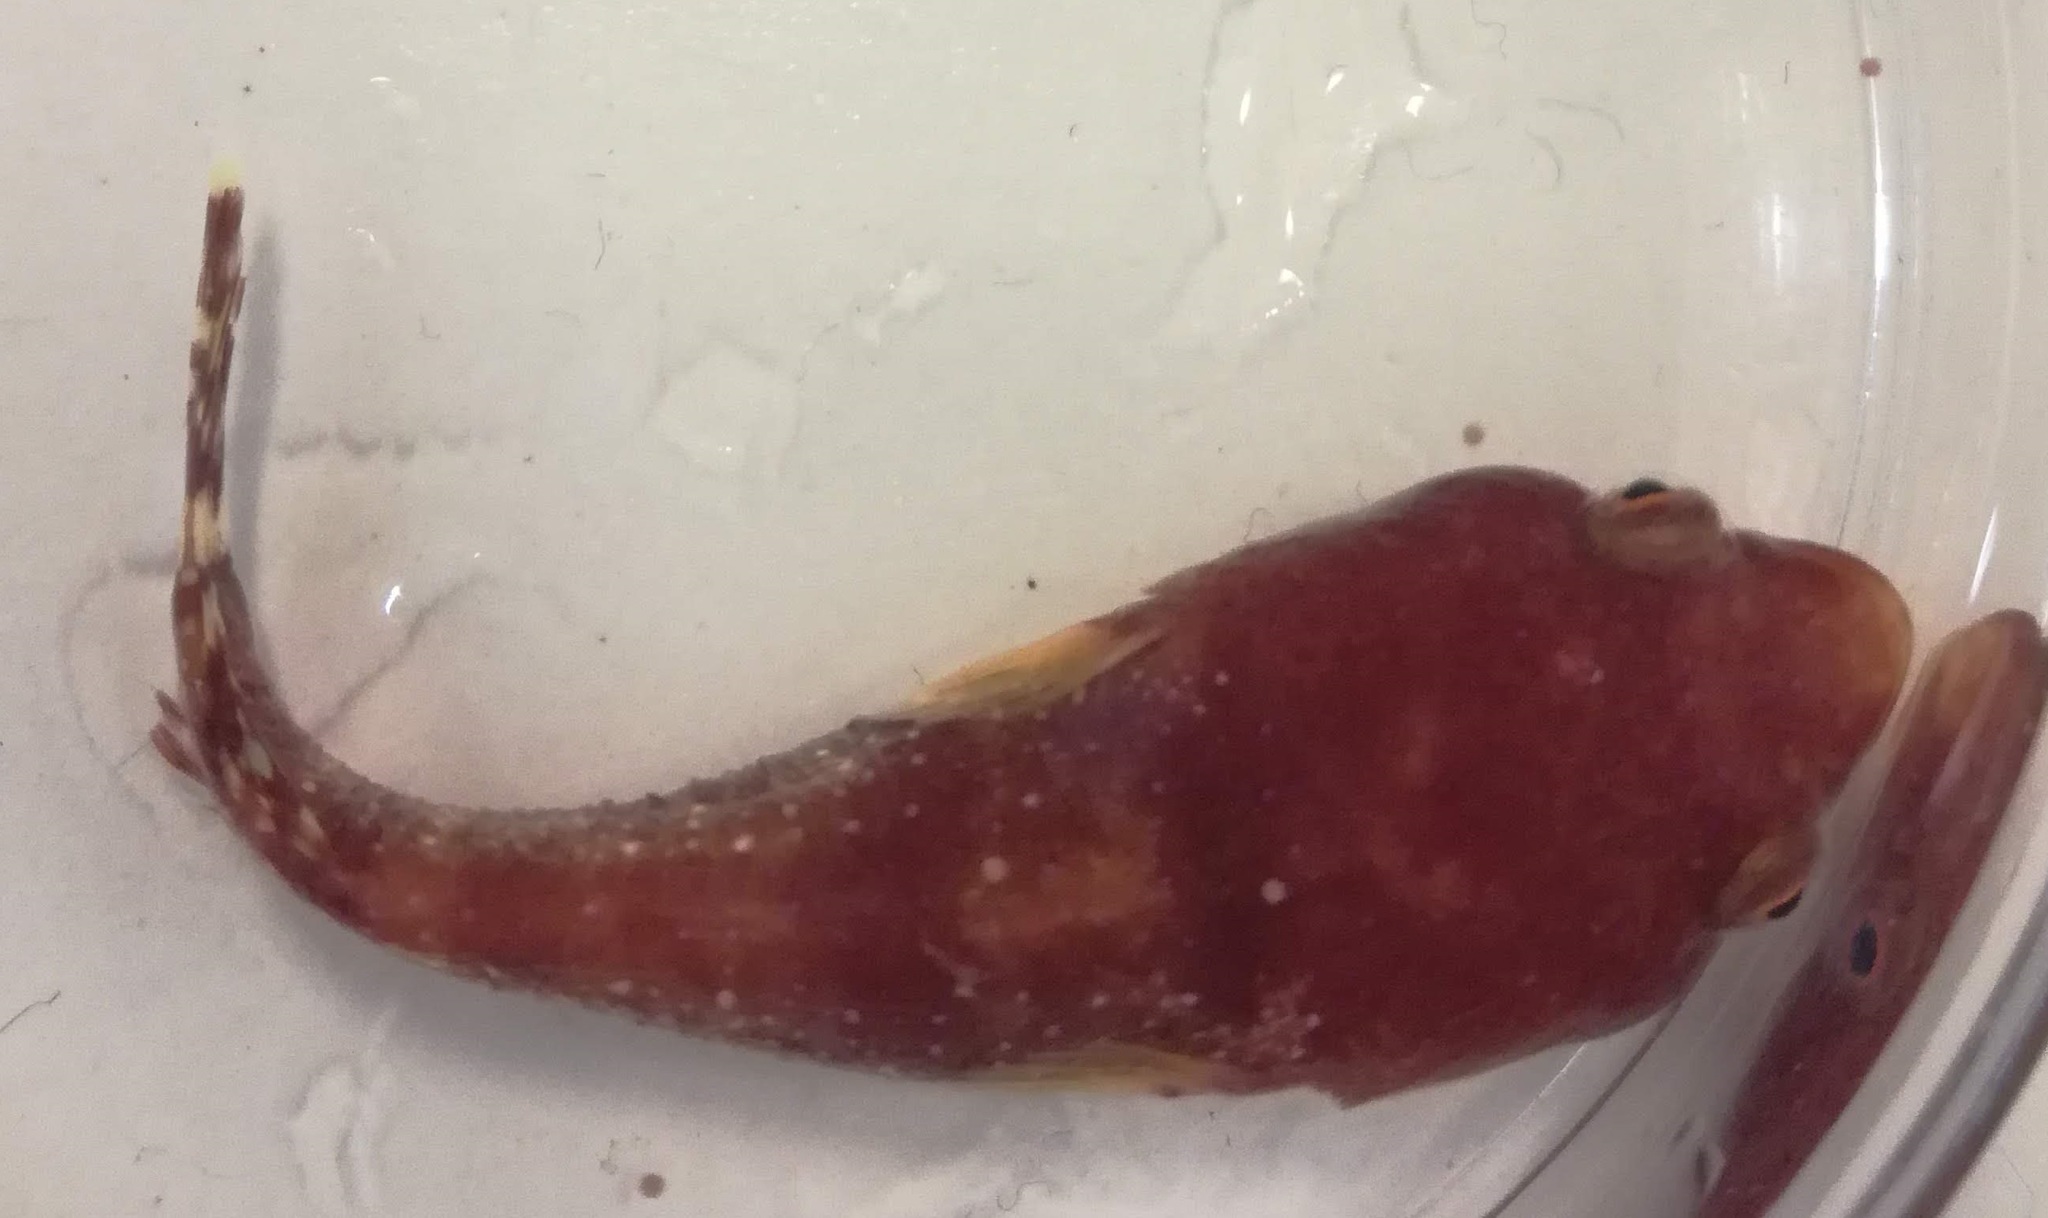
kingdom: Animalia
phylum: Chordata
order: Gobiesociformes
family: Gobiesocidae
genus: Diplecogaster
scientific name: Diplecogaster bimaculata
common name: Two-spotted clingfish
